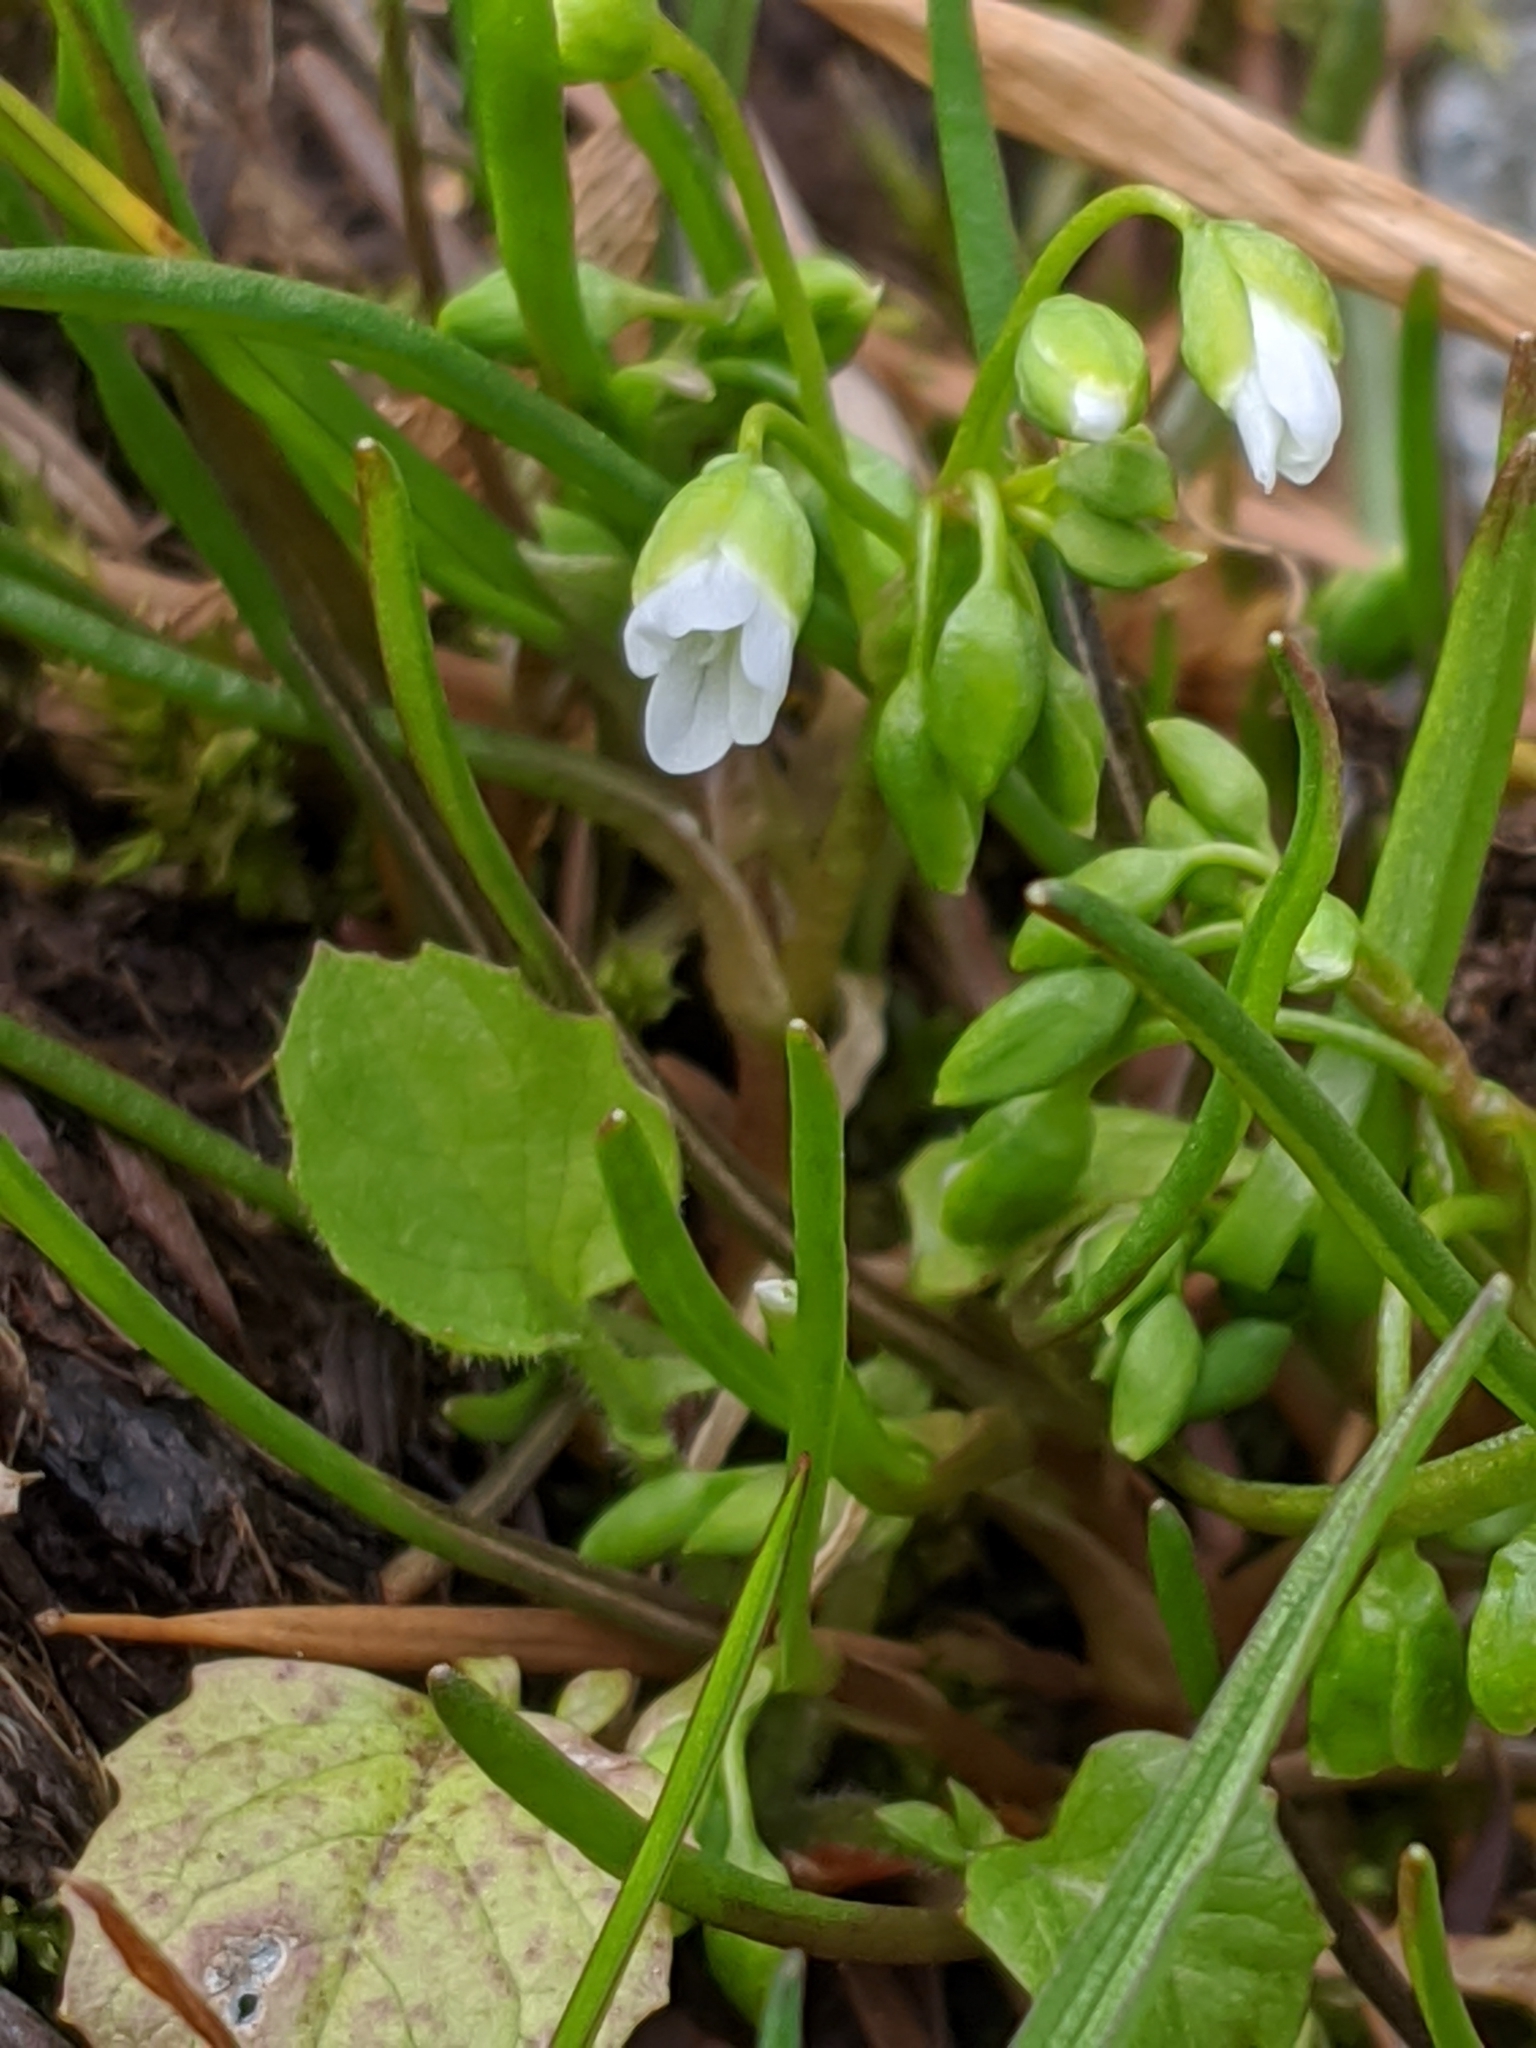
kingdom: Plantae
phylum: Tracheophyta
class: Magnoliopsida
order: Caryophyllales
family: Montiaceae
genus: Montia
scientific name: Montia linearis
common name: Narrow-leaf montia
